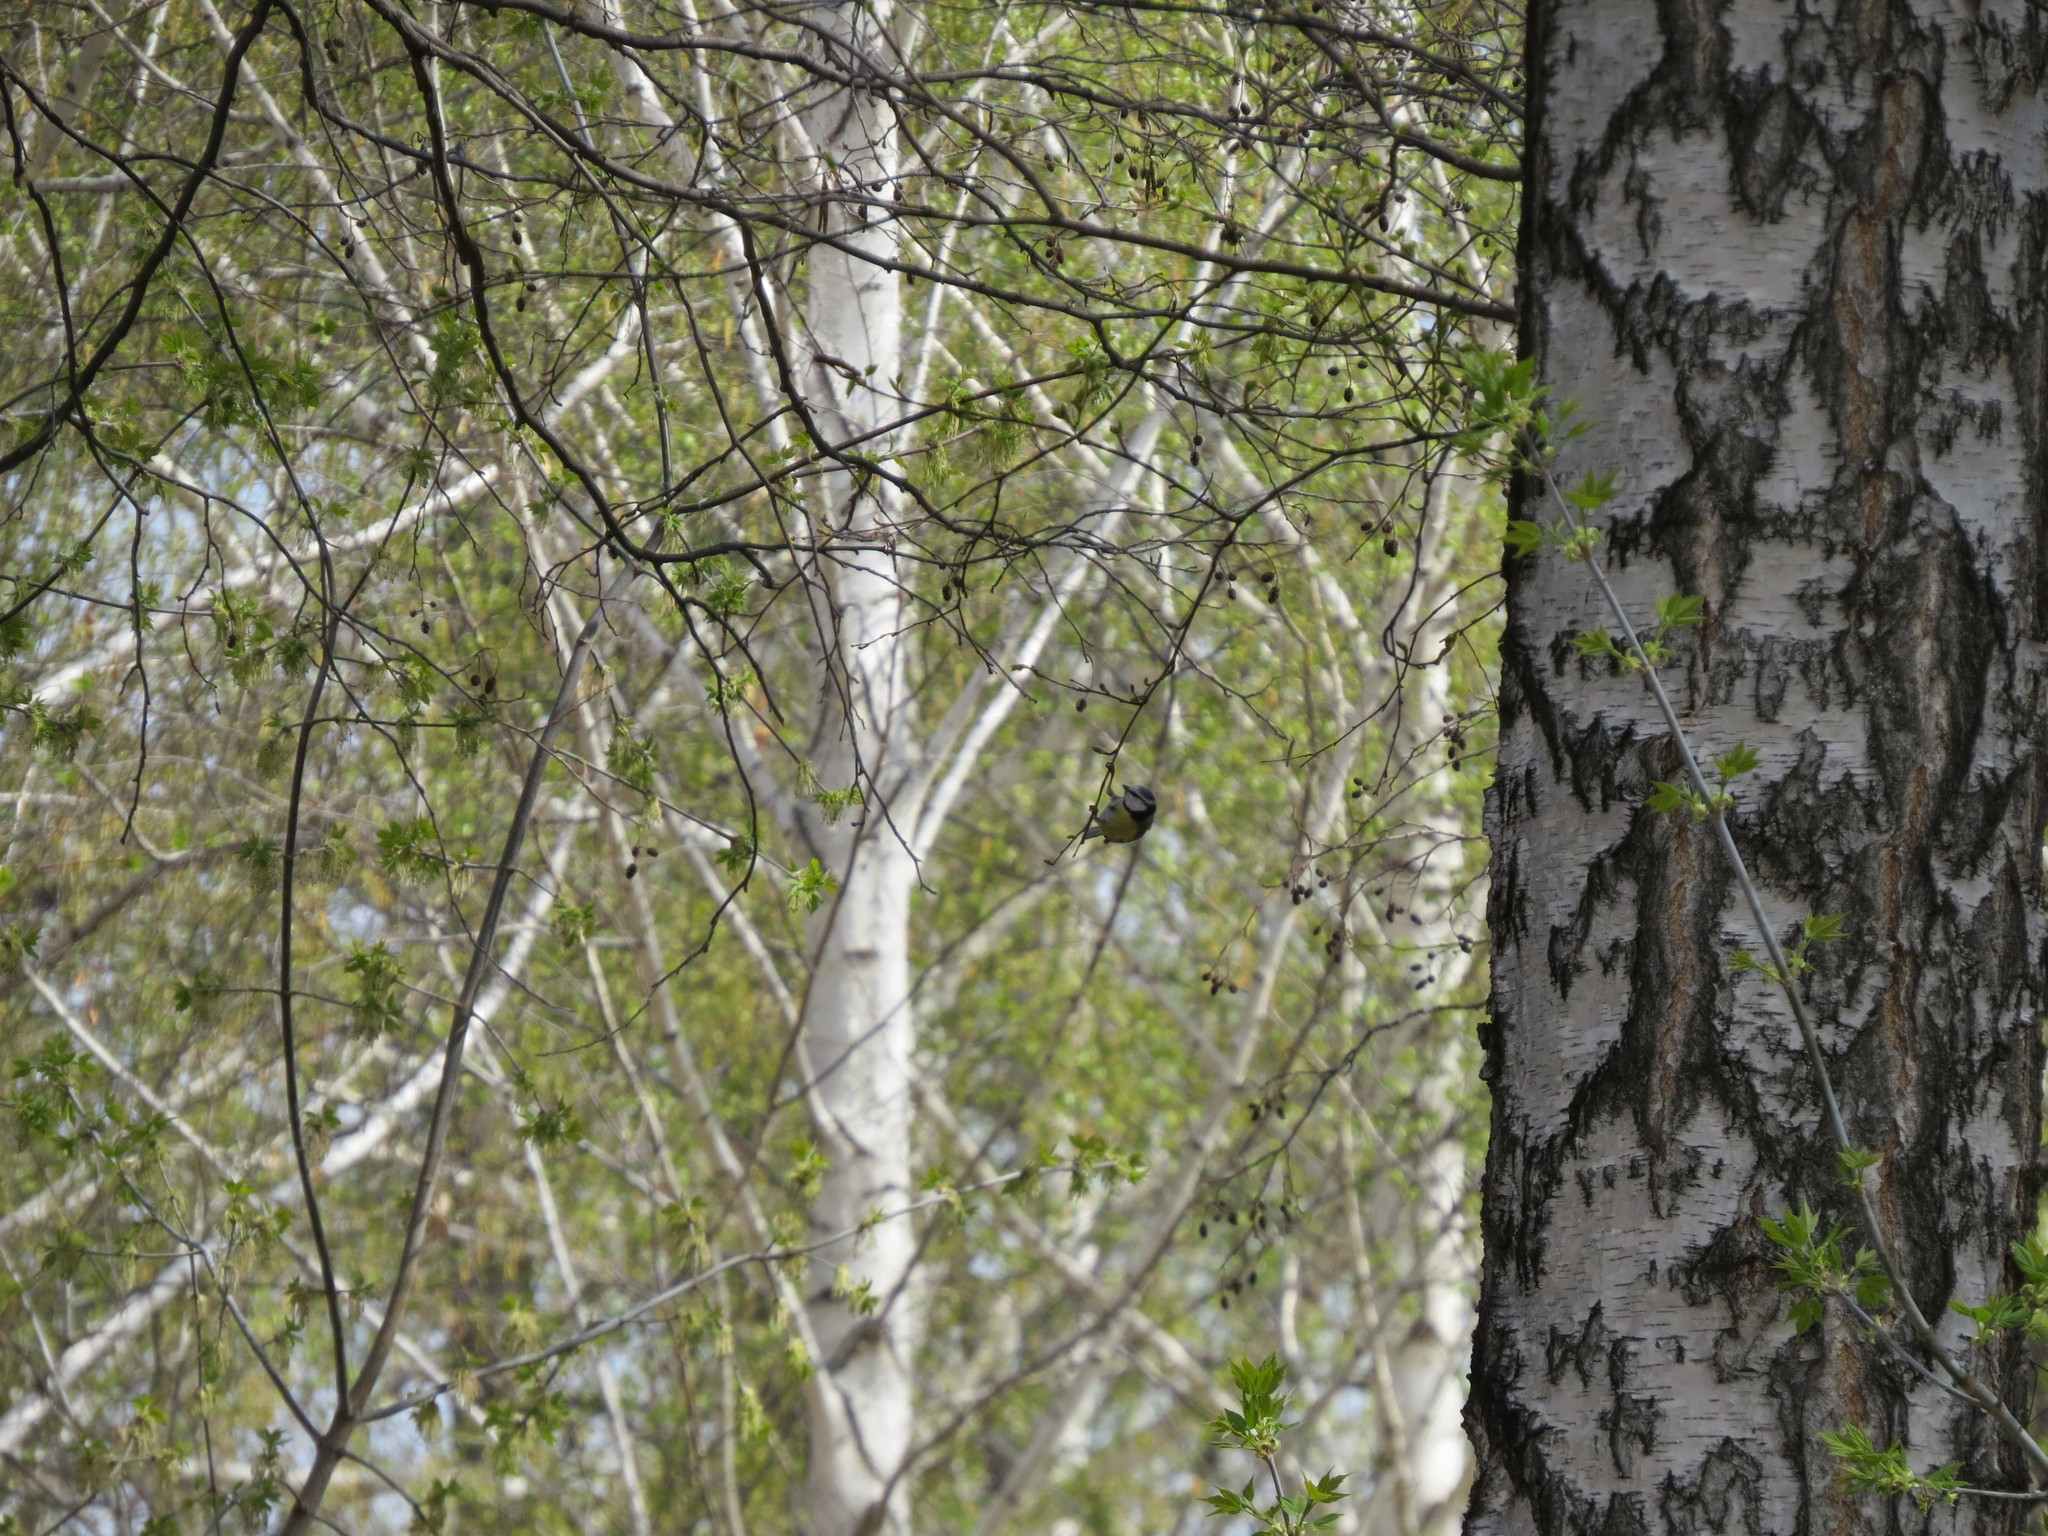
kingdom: Animalia
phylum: Chordata
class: Aves
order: Passeriformes
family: Paridae
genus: Cyanistes
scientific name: Cyanistes caeruleus
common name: Eurasian blue tit
